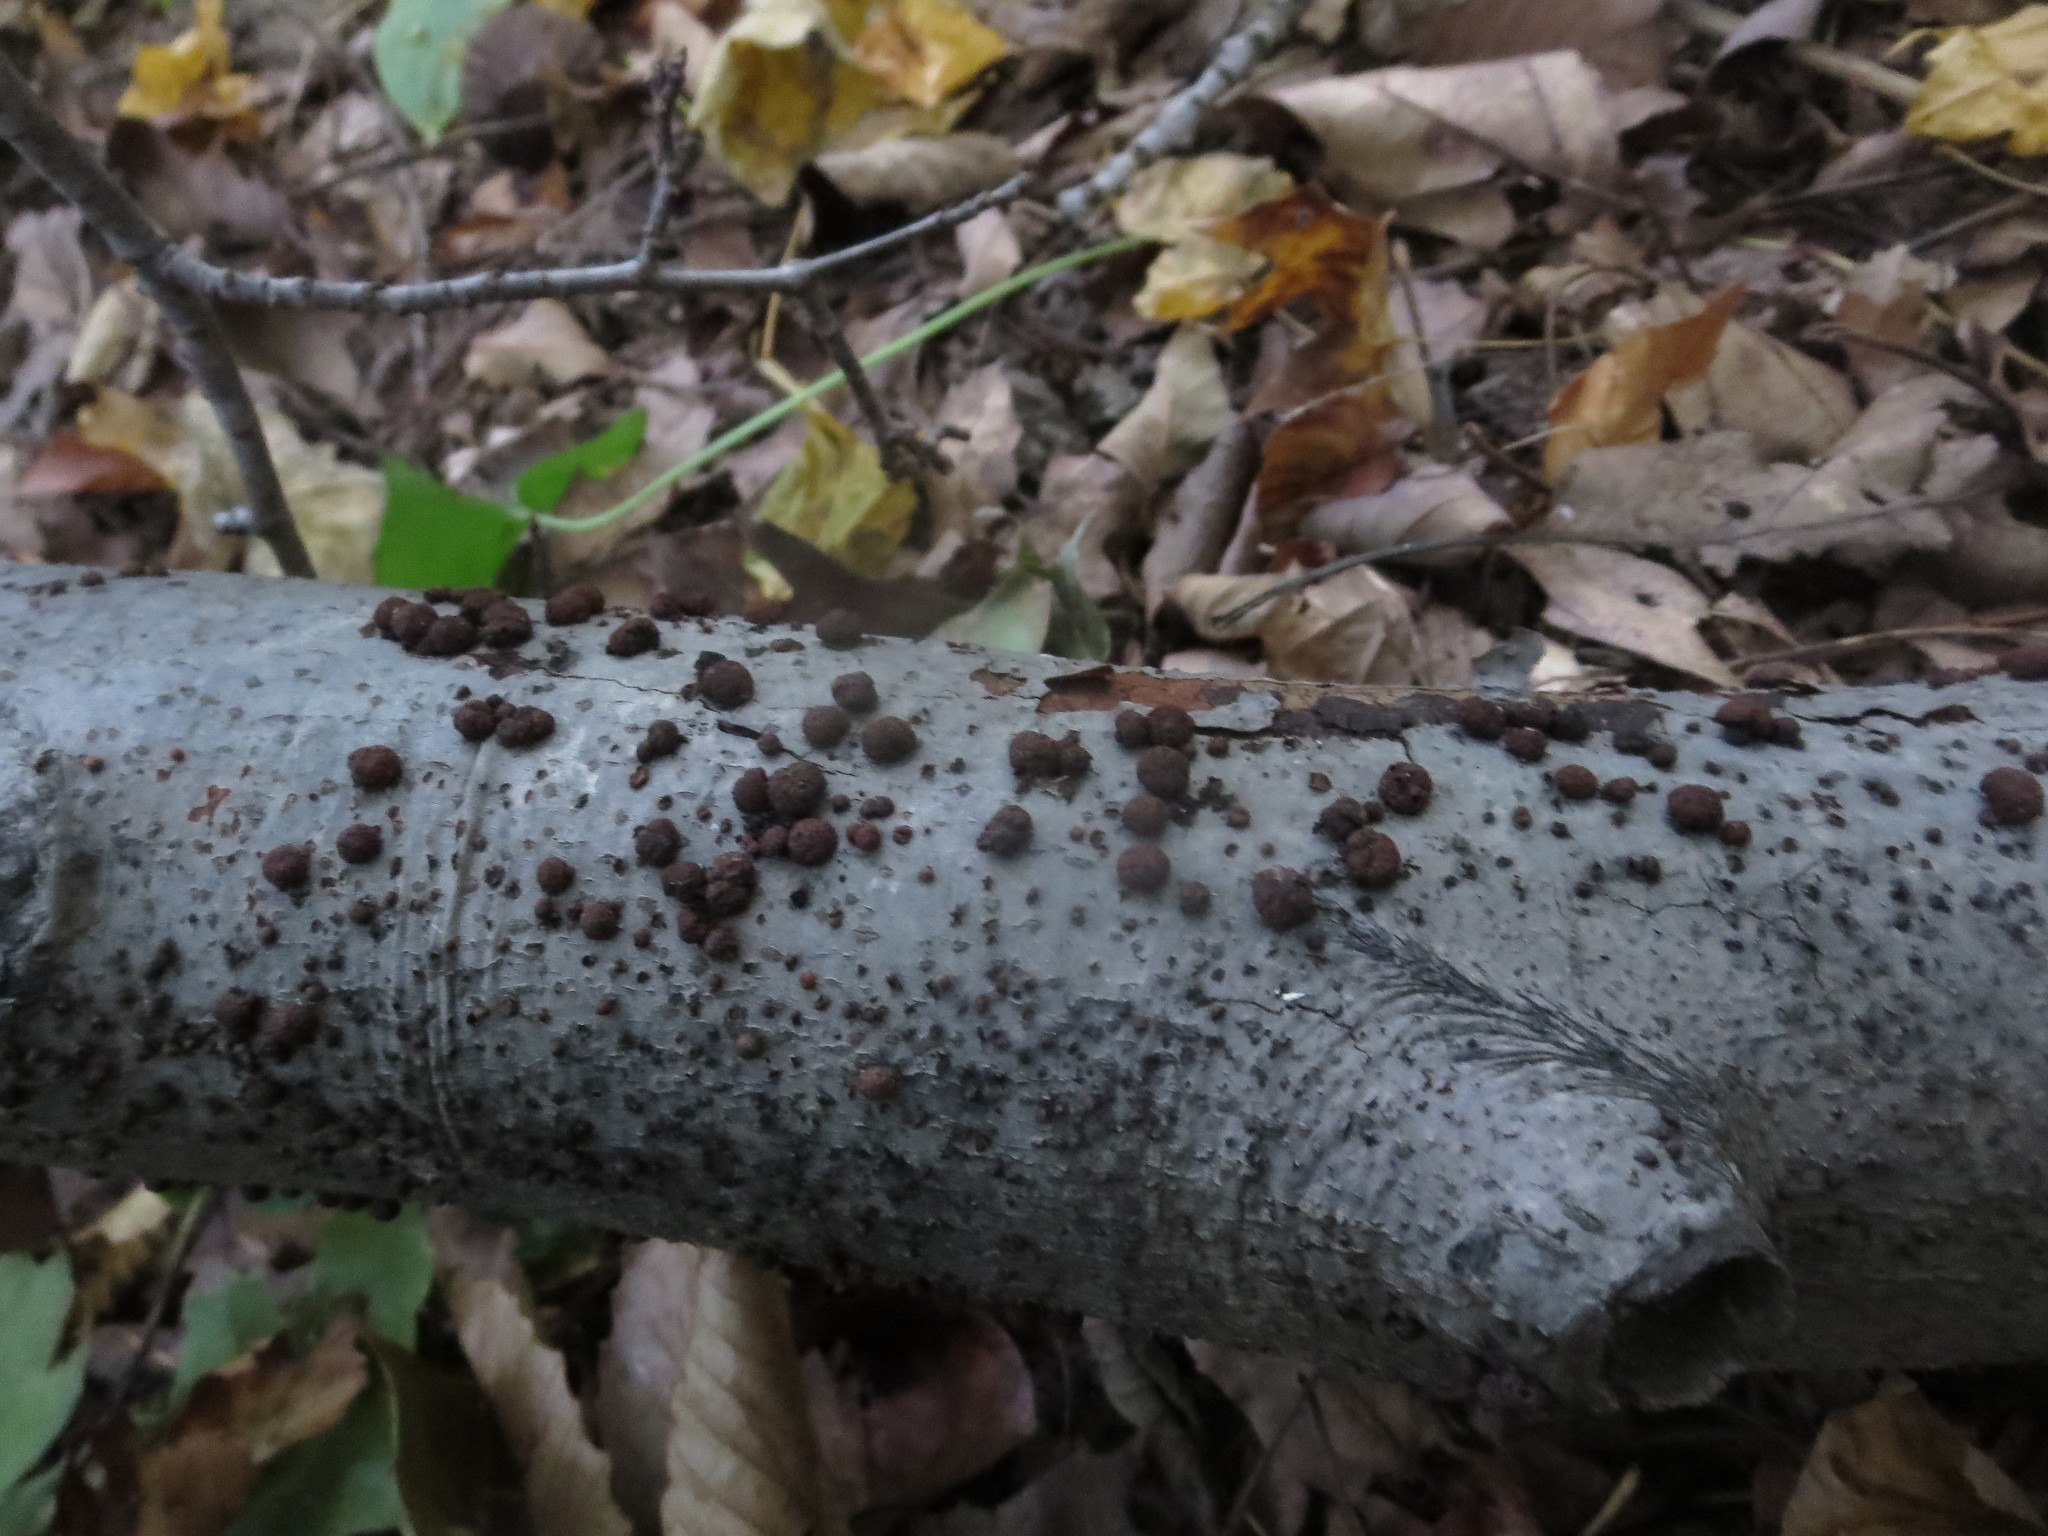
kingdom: Fungi
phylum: Ascomycota
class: Sordariomycetes
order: Xylariales
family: Hypoxylaceae
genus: Jackrogersella
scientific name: Jackrogersella cohaerens
